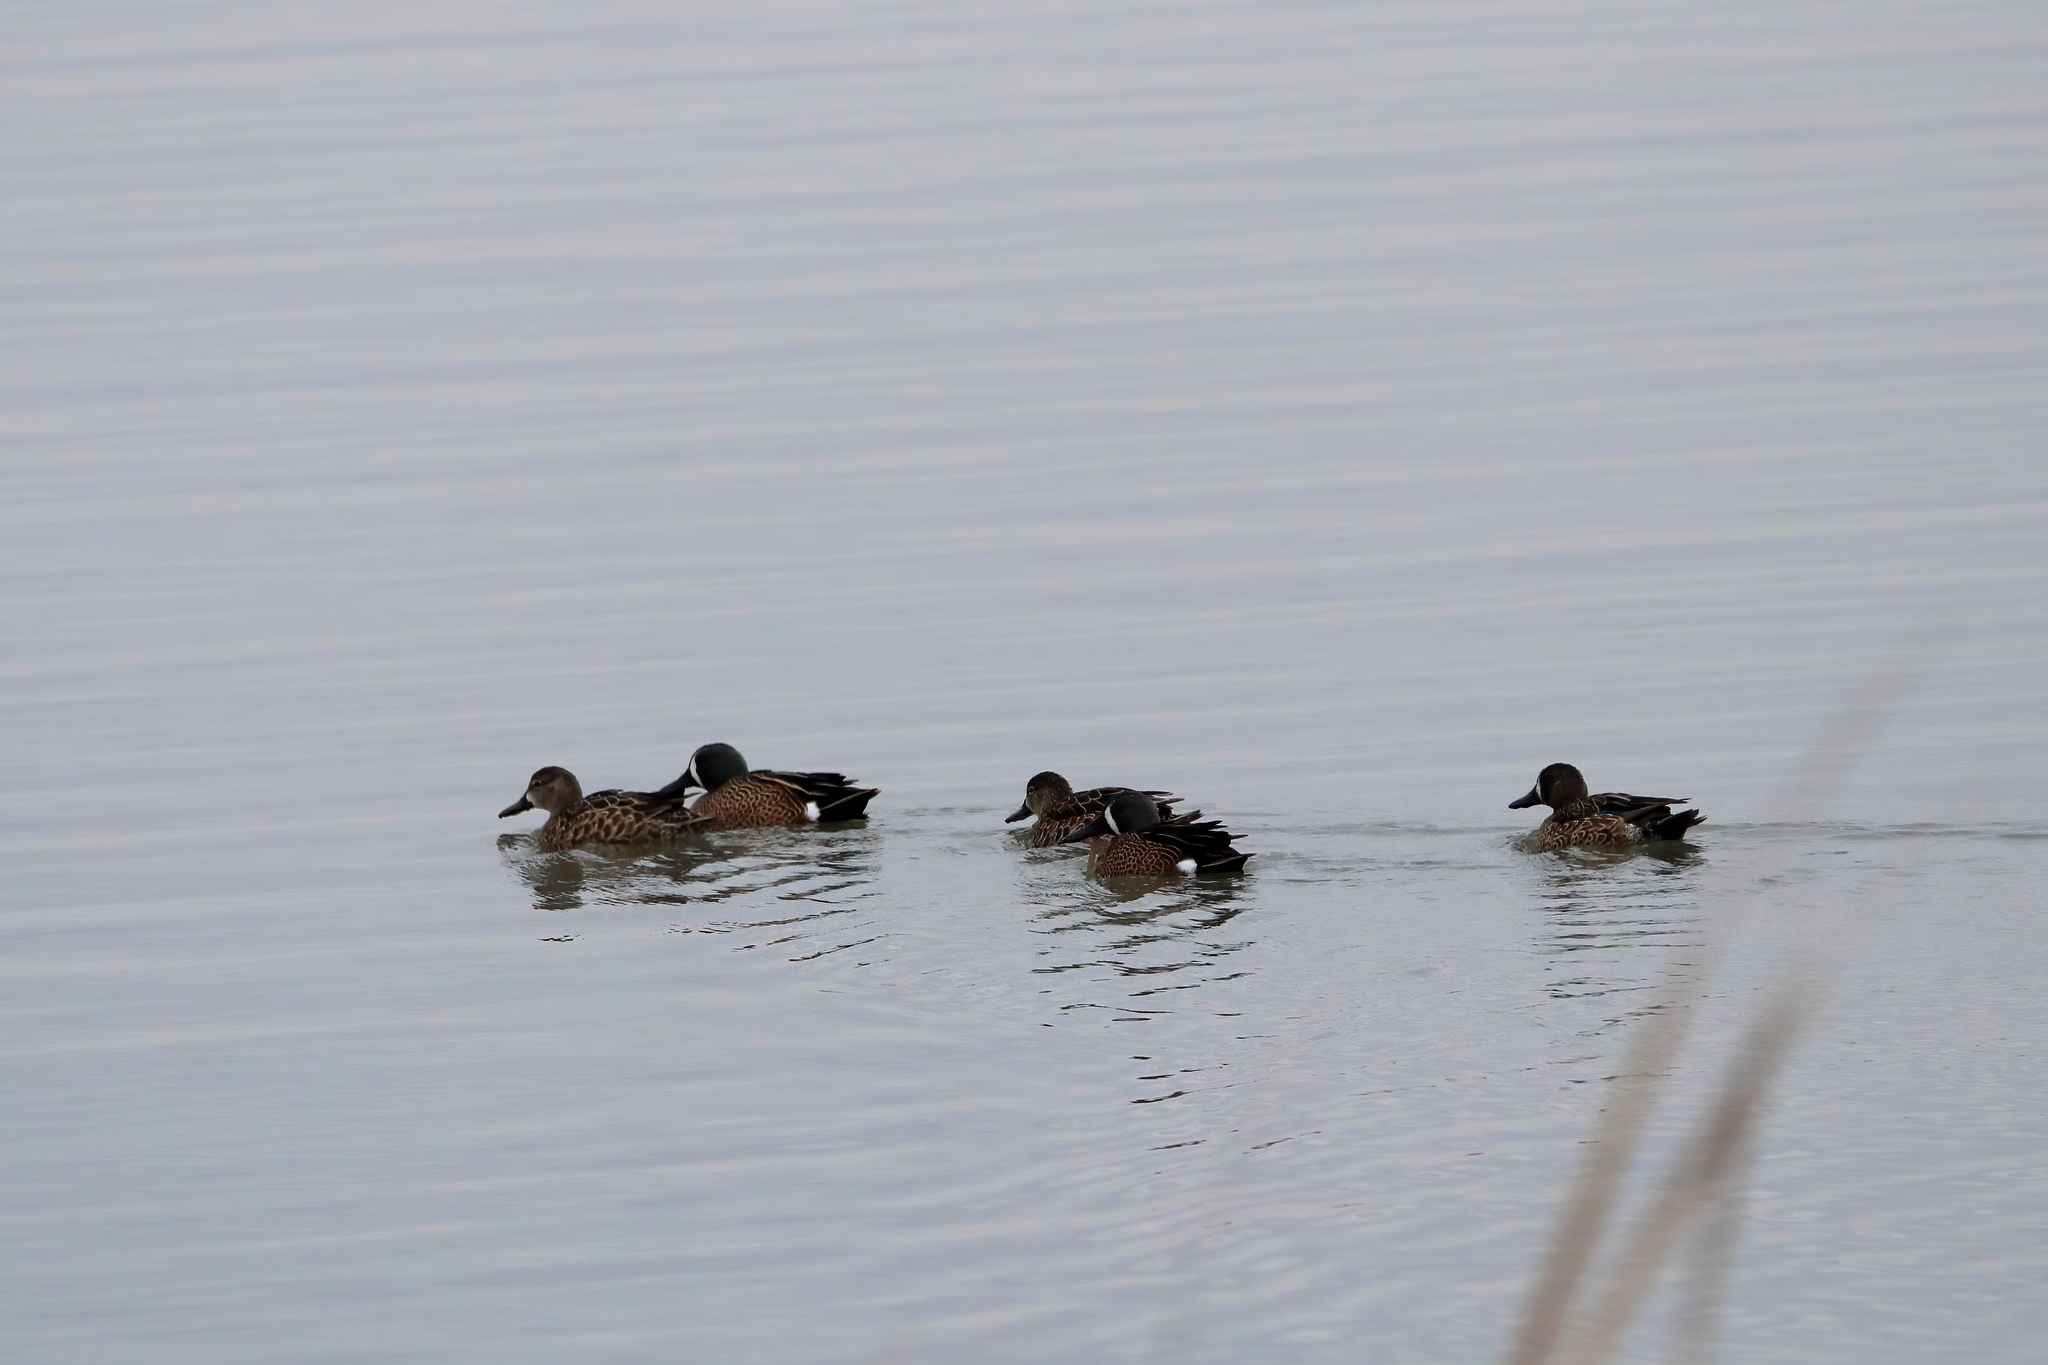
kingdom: Animalia
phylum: Chordata
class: Aves
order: Anseriformes
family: Anatidae
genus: Spatula
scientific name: Spatula discors
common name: Blue-winged teal
